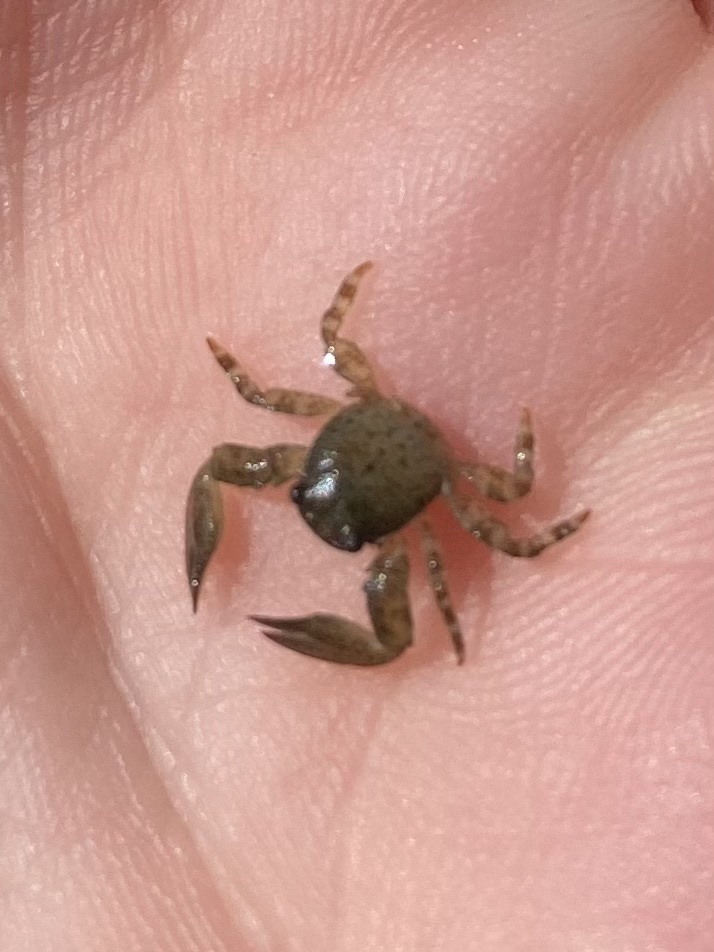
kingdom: Animalia
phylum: Arthropoda
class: Malacostraca
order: Decapoda
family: Porcellanidae
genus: Petrolisthes
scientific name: Petrolisthes elongatus
